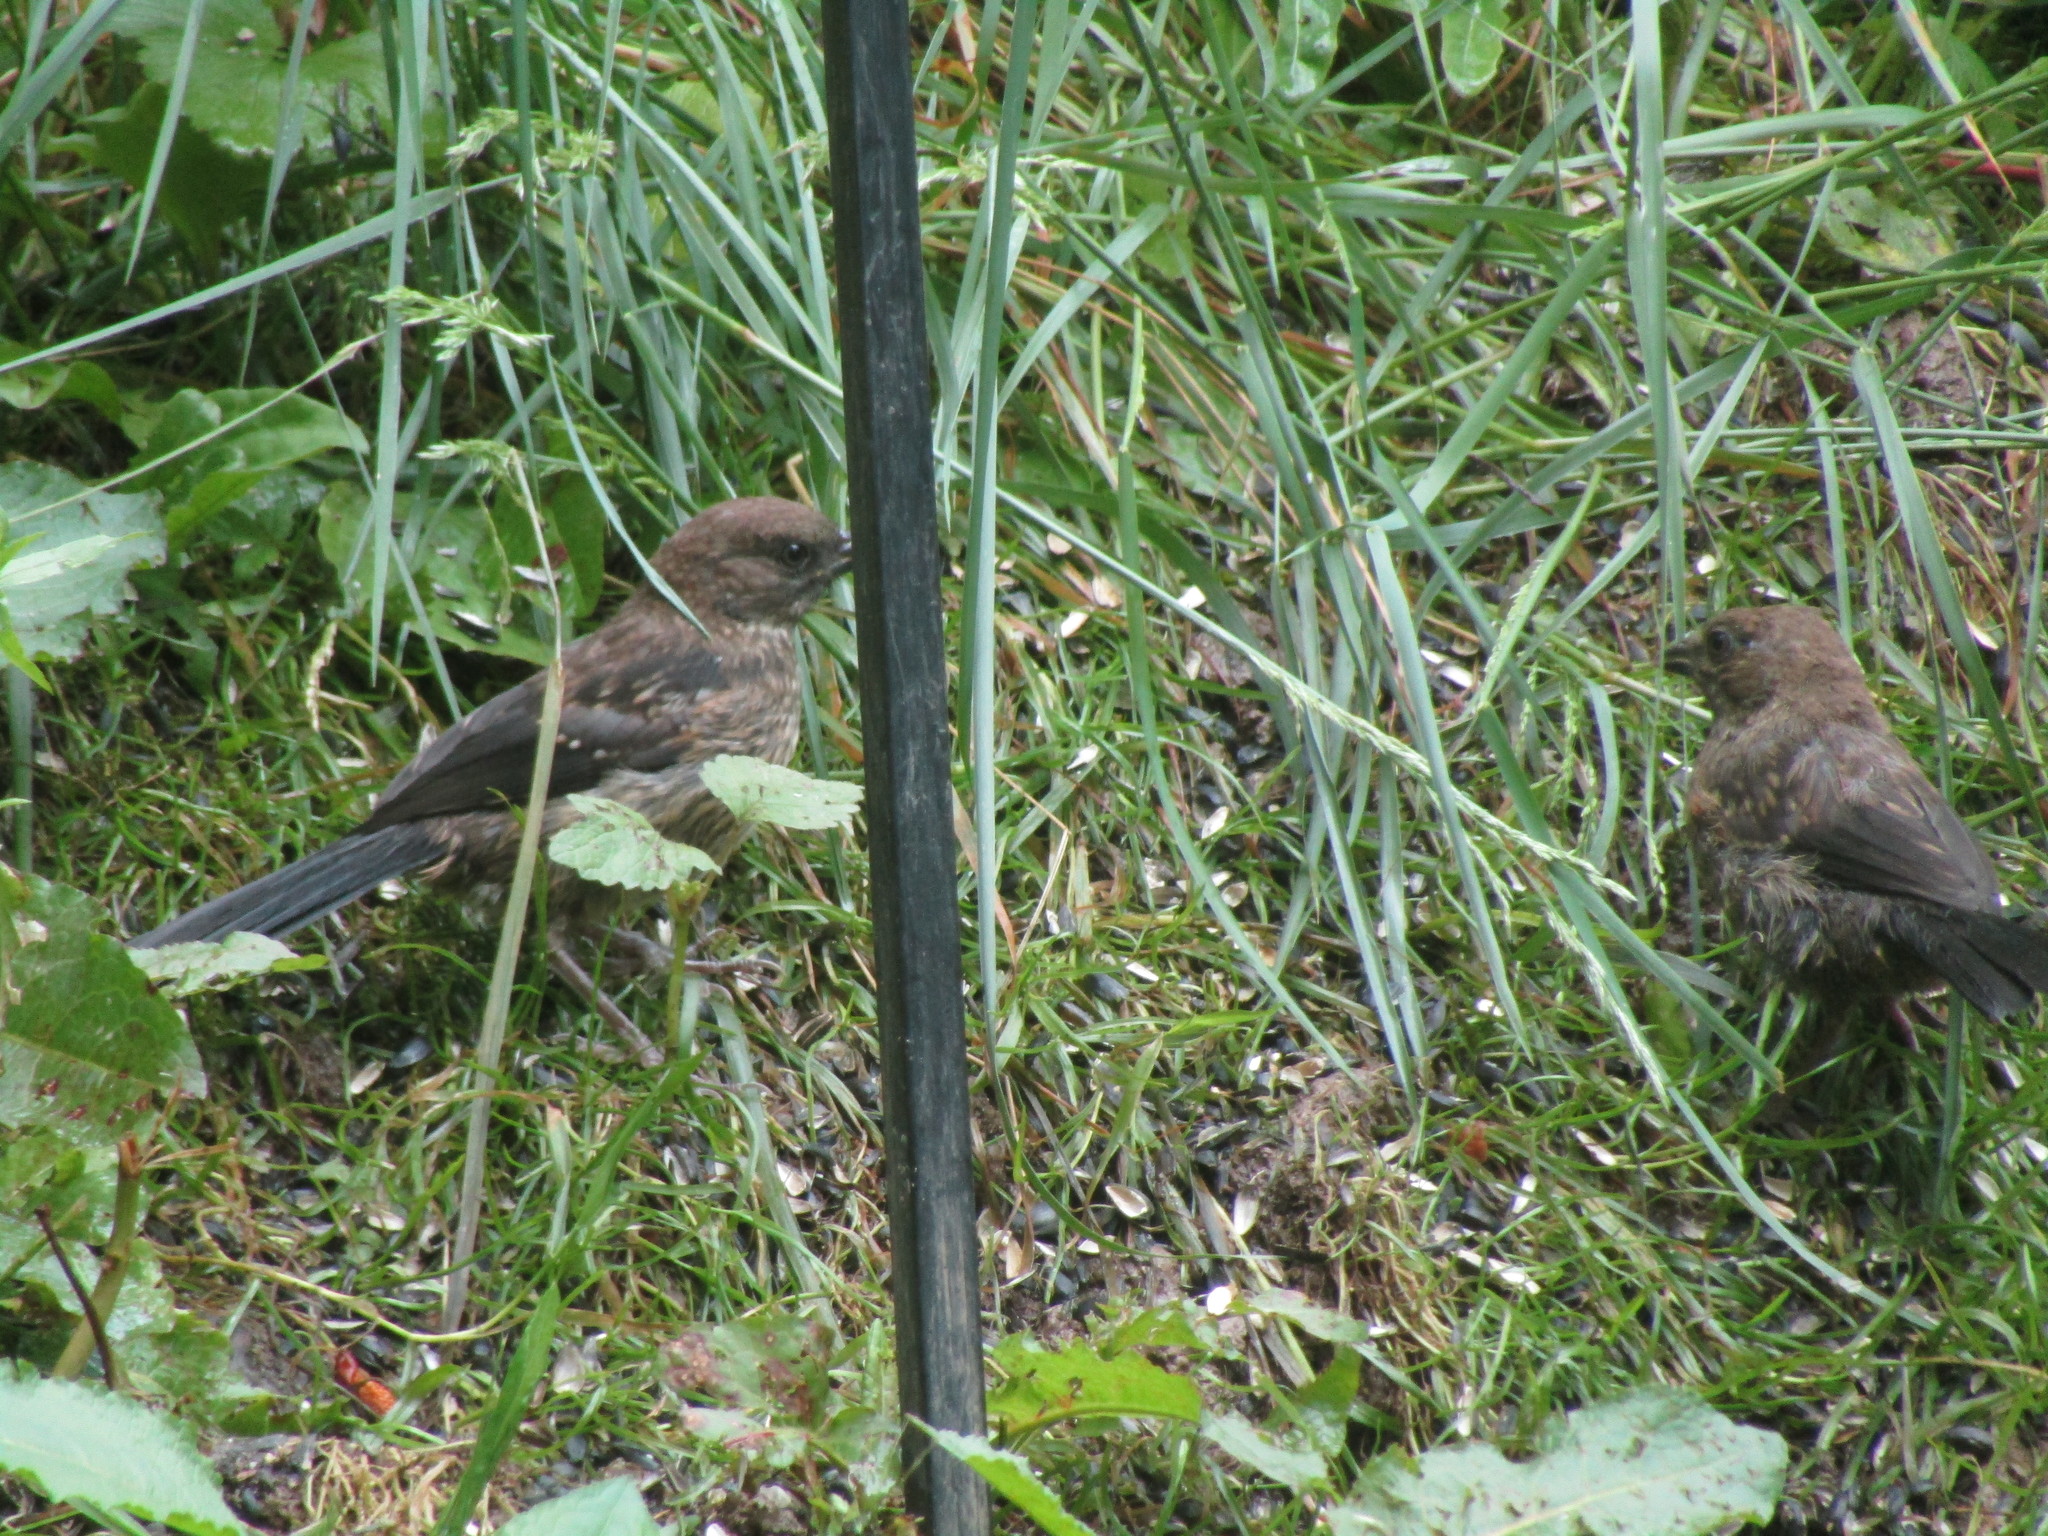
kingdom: Animalia
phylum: Chordata
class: Aves
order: Passeriformes
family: Passerellidae
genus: Pipilo
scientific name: Pipilo maculatus
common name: Spotted towhee
